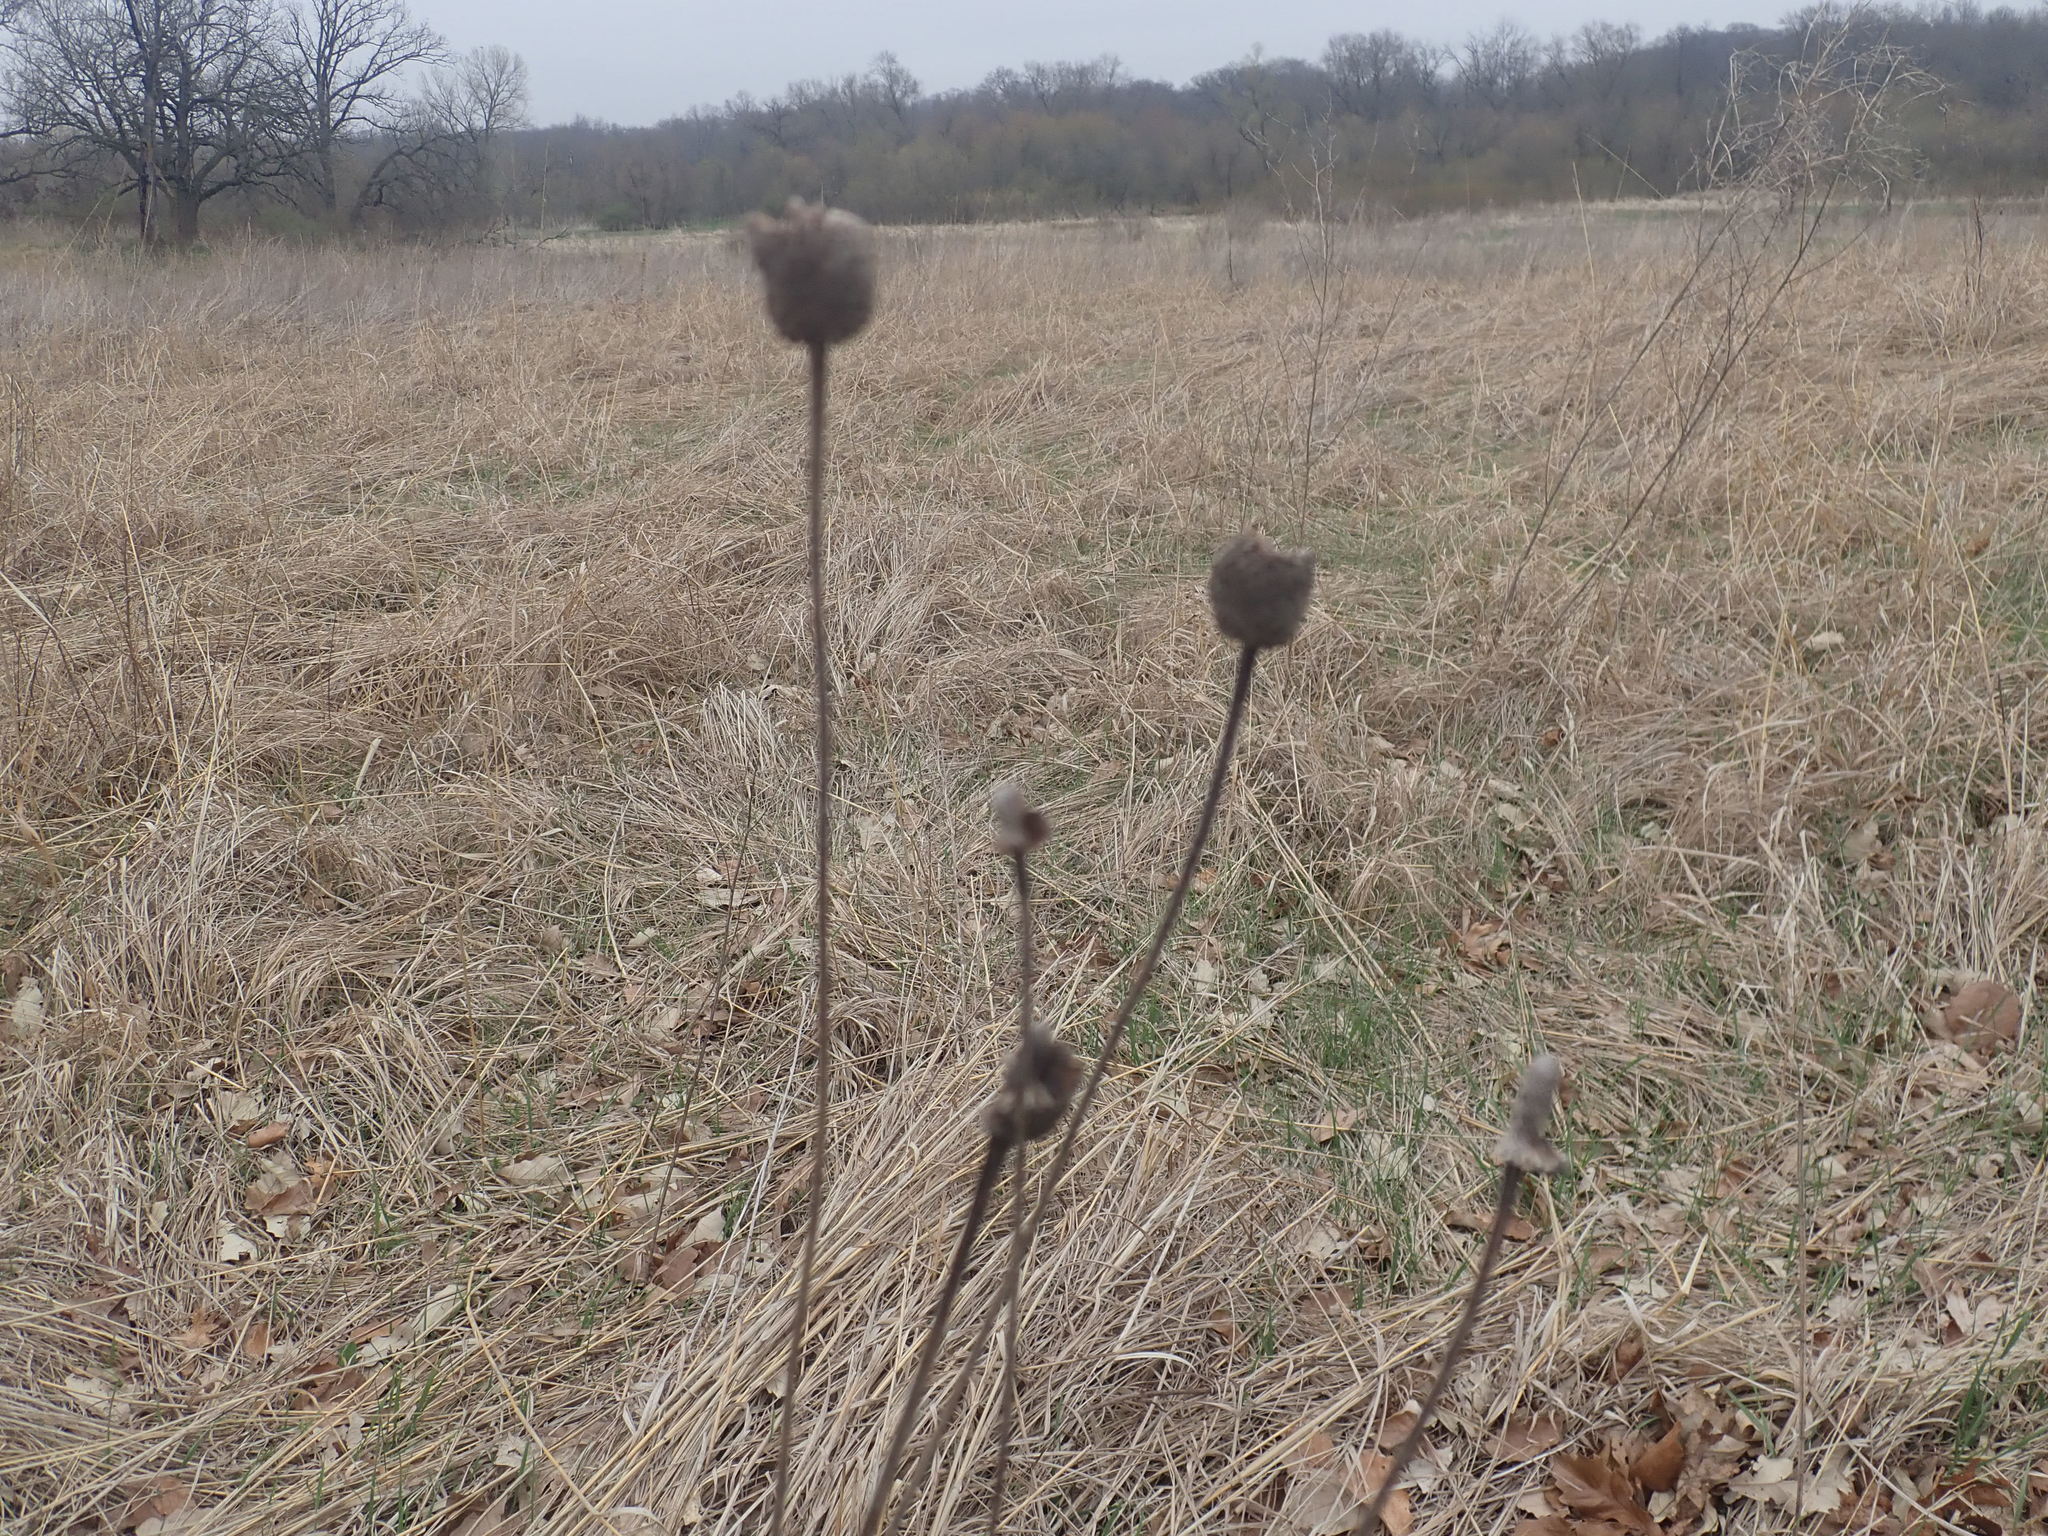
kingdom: Plantae
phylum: Tracheophyta
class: Magnoliopsida
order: Asterales
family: Asteraceae
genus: Ratibida
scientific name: Ratibida pinnata
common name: Drooping prairie-coneflower
